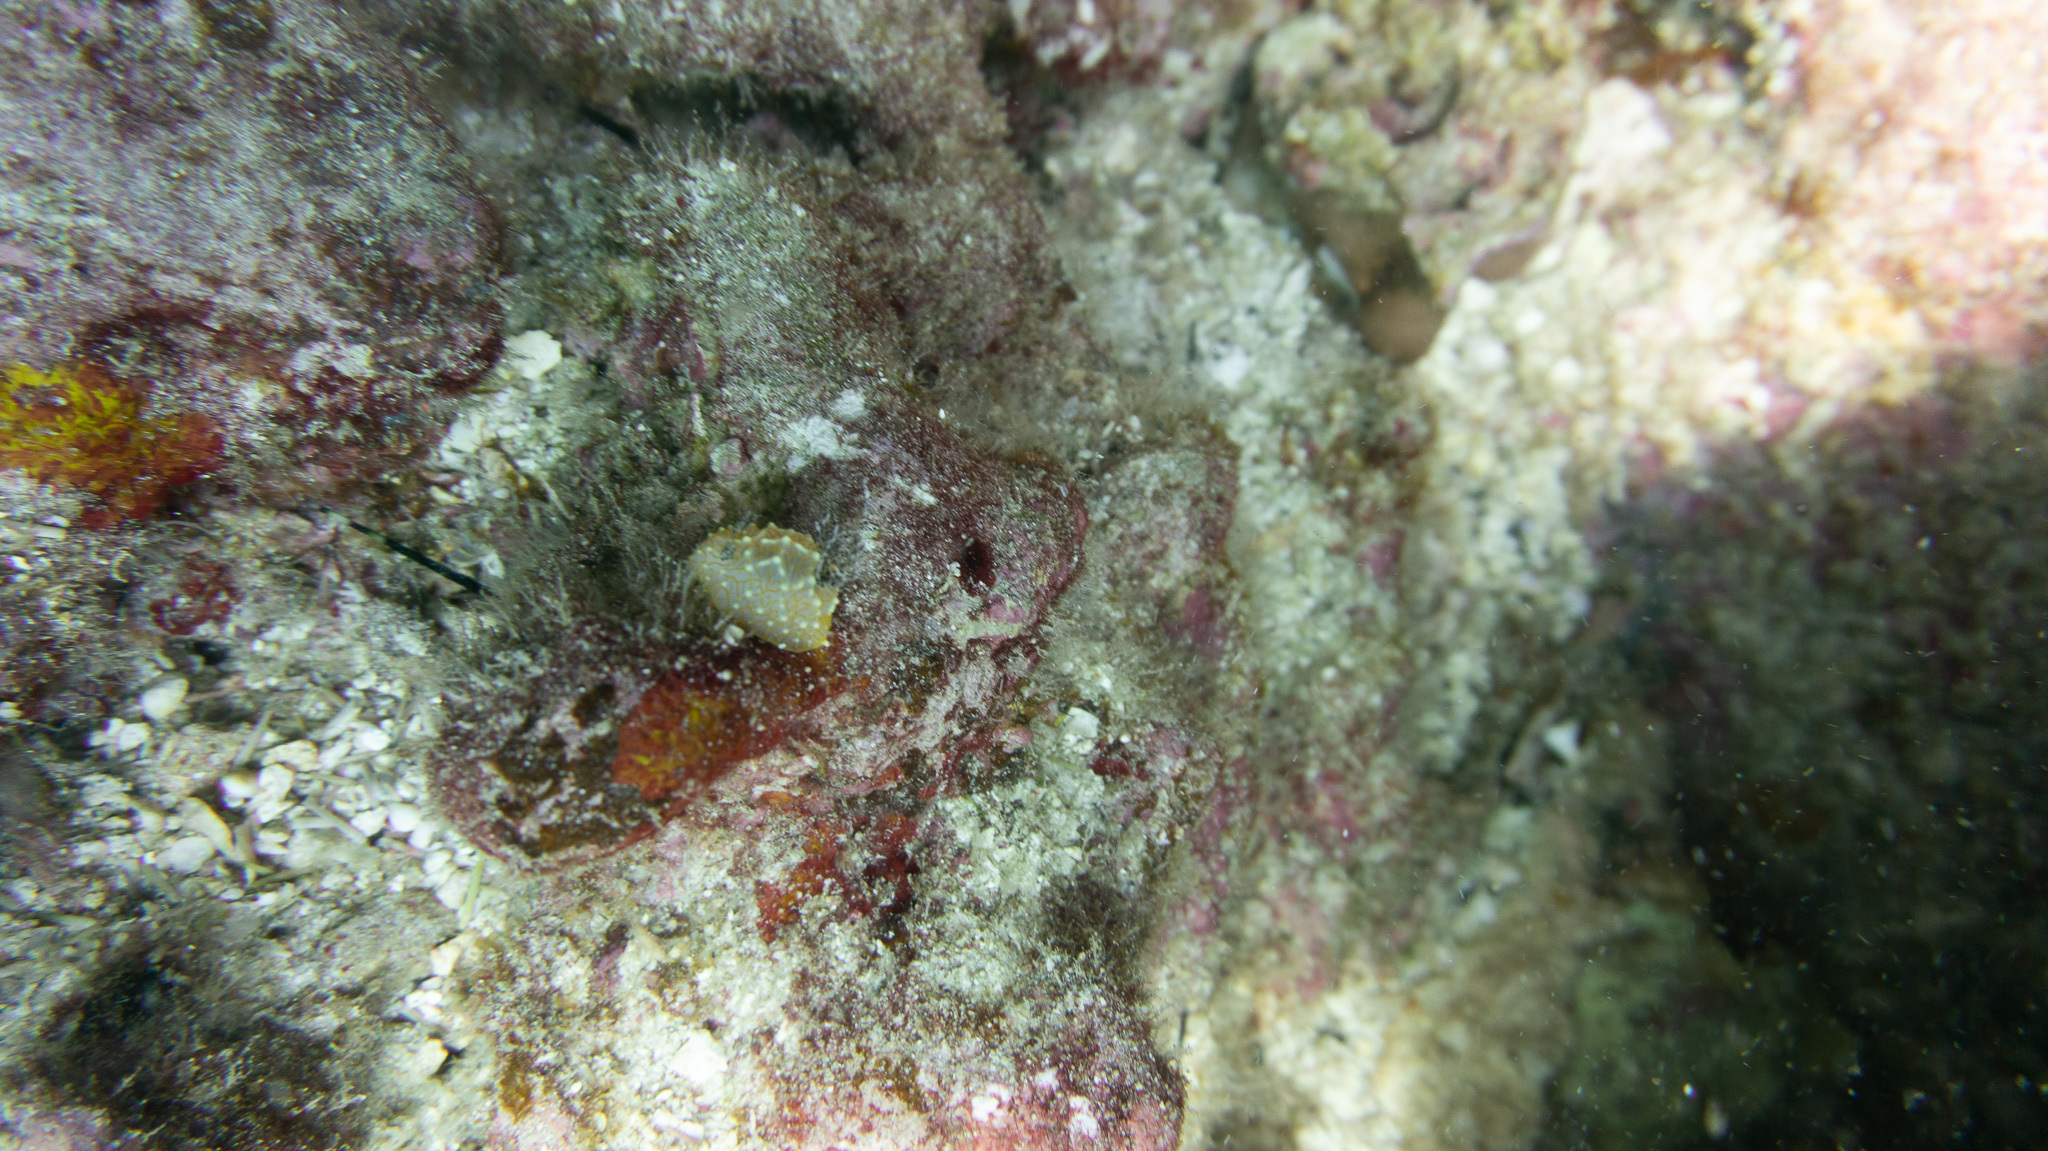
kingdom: Animalia
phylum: Mollusca
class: Gastropoda
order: Nudibranchia
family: Discodorididae
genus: Halgerda
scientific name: Halgerda terramtuentis
